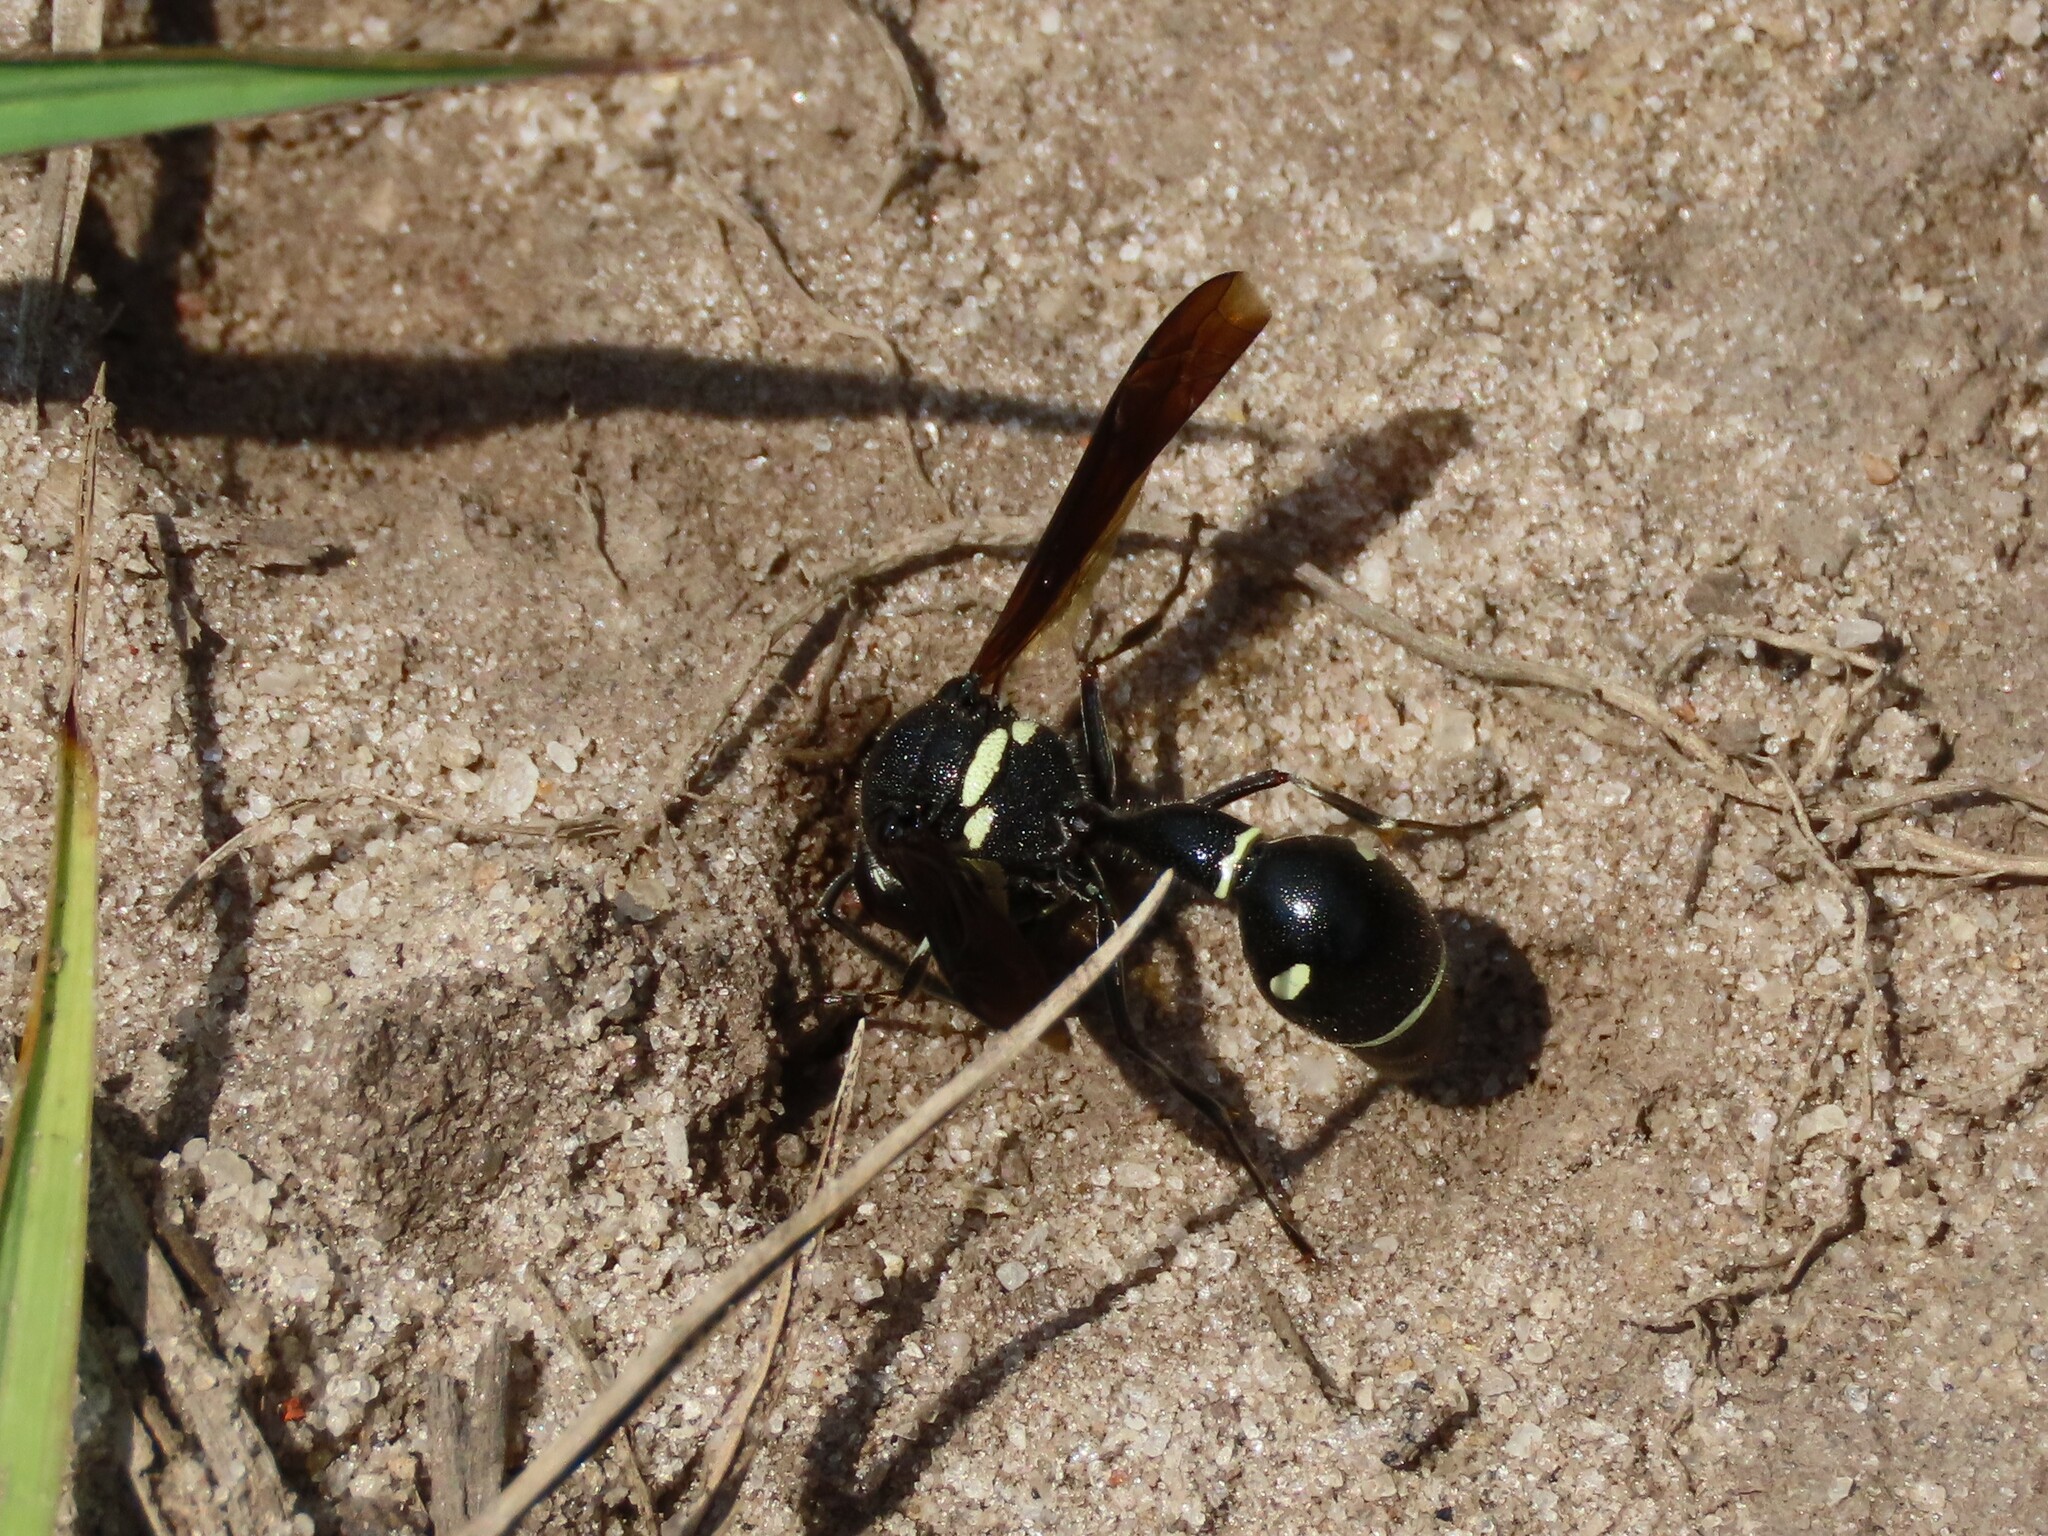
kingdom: Animalia
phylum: Arthropoda
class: Insecta
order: Hymenoptera
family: Vespidae
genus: Eumenes
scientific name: Eumenes fraternus
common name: Fraternal potter wasp
